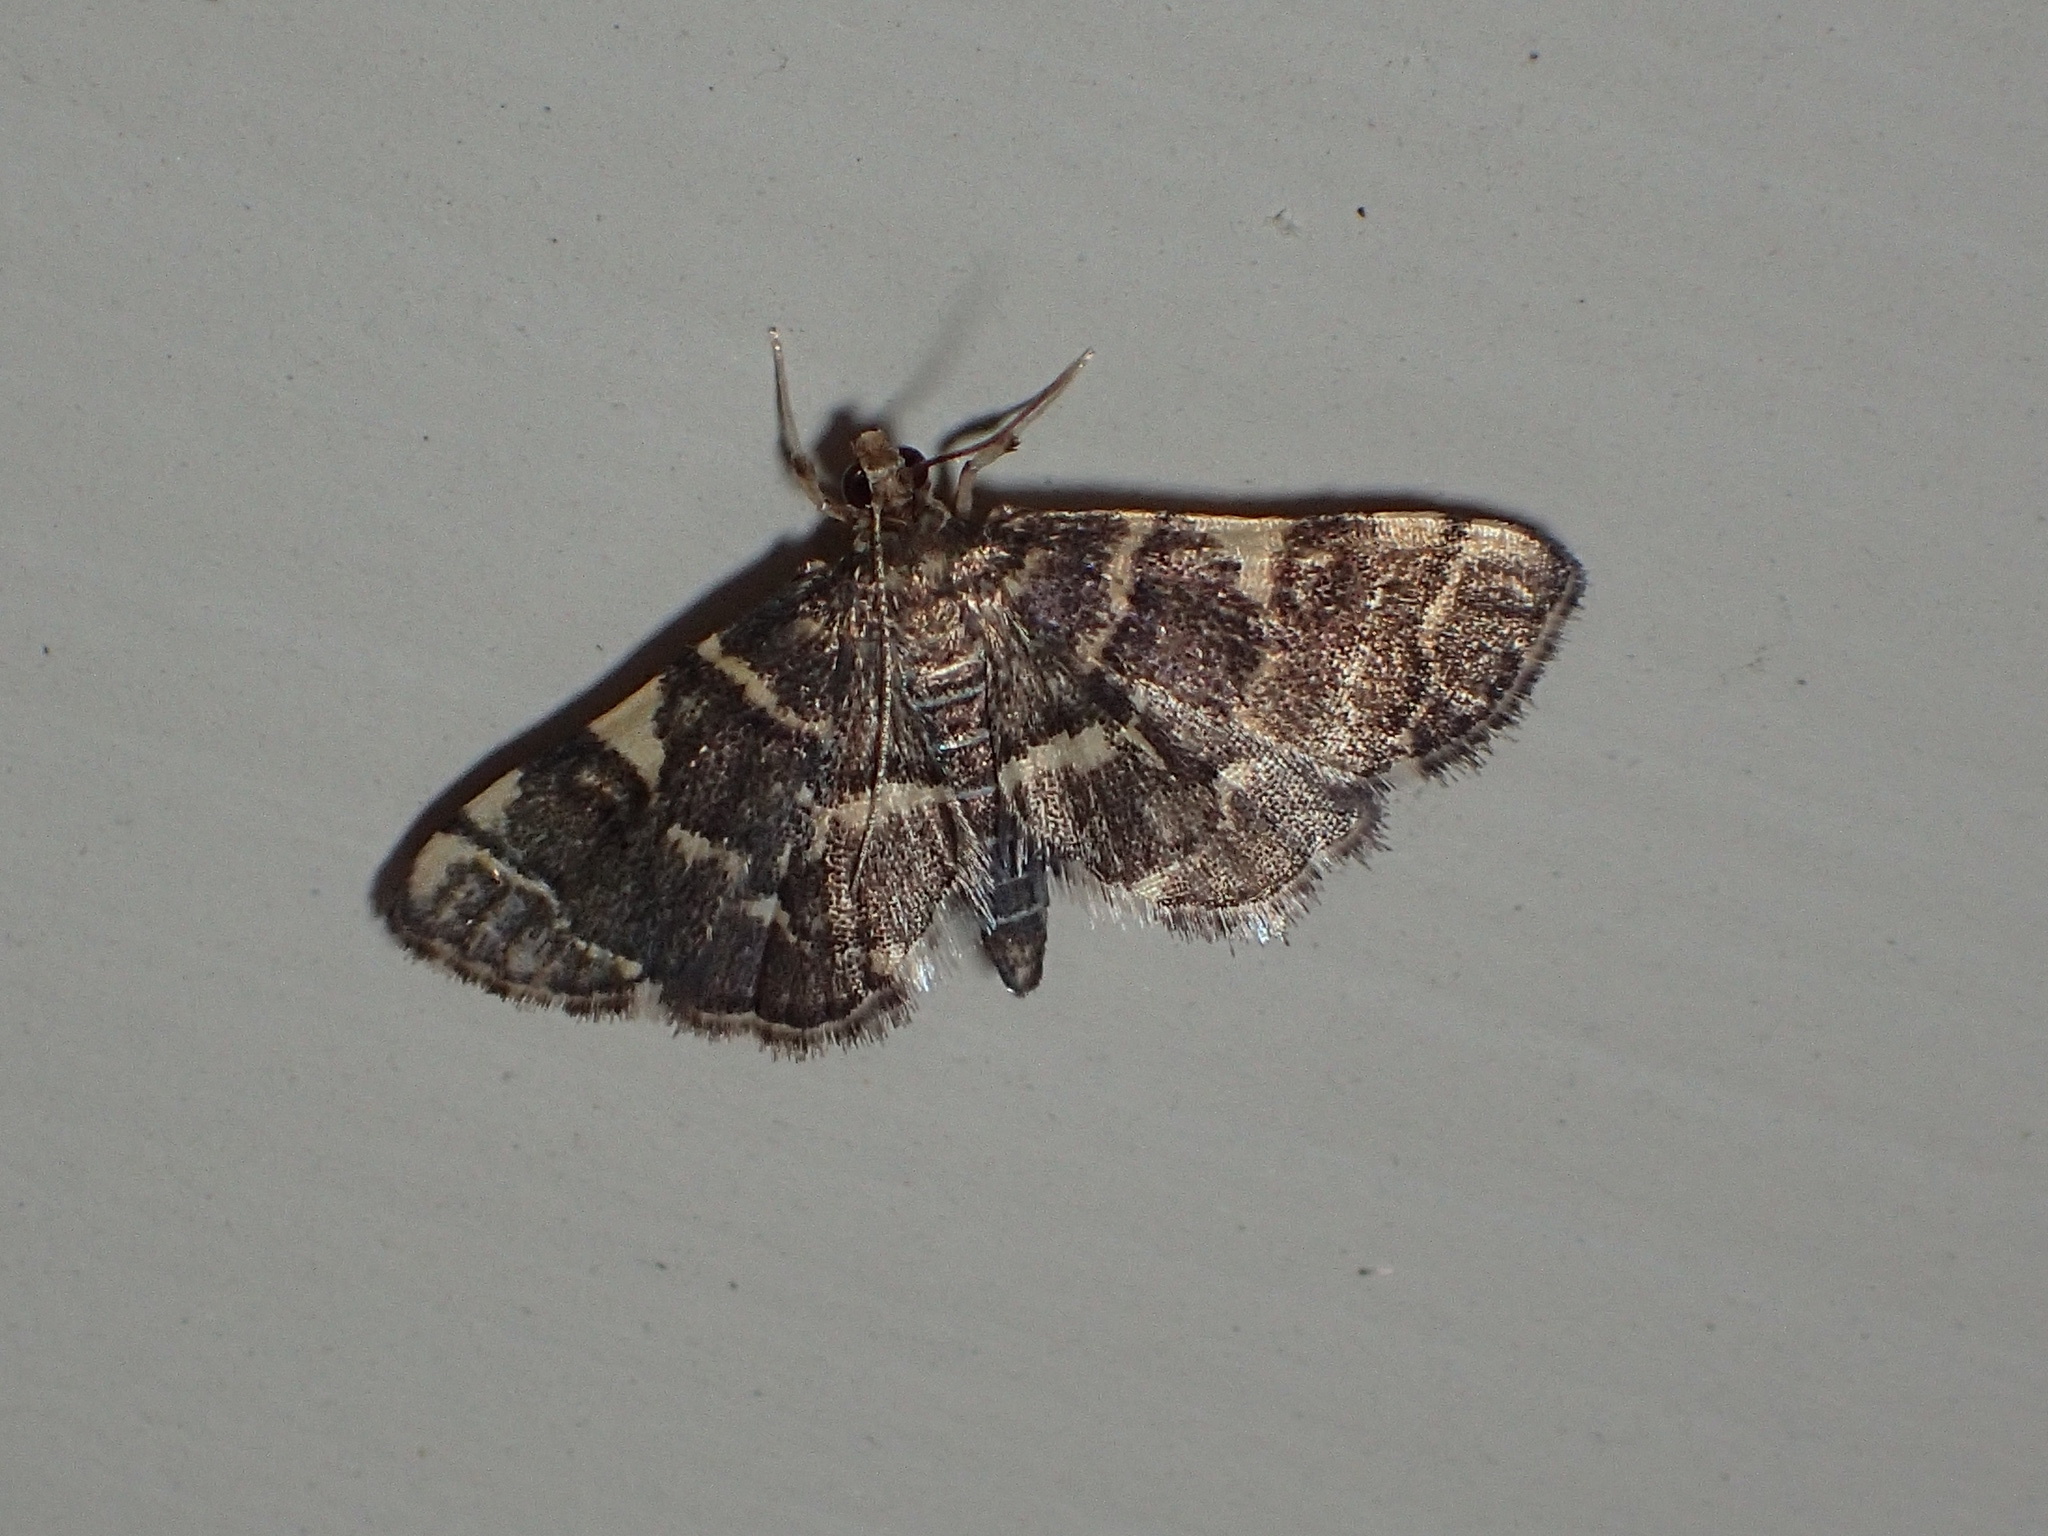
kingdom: Animalia
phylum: Arthropoda
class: Insecta
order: Lepidoptera
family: Crambidae
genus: Anageshna
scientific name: Anageshna primordialis
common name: Yellow-spotted webworm moth
